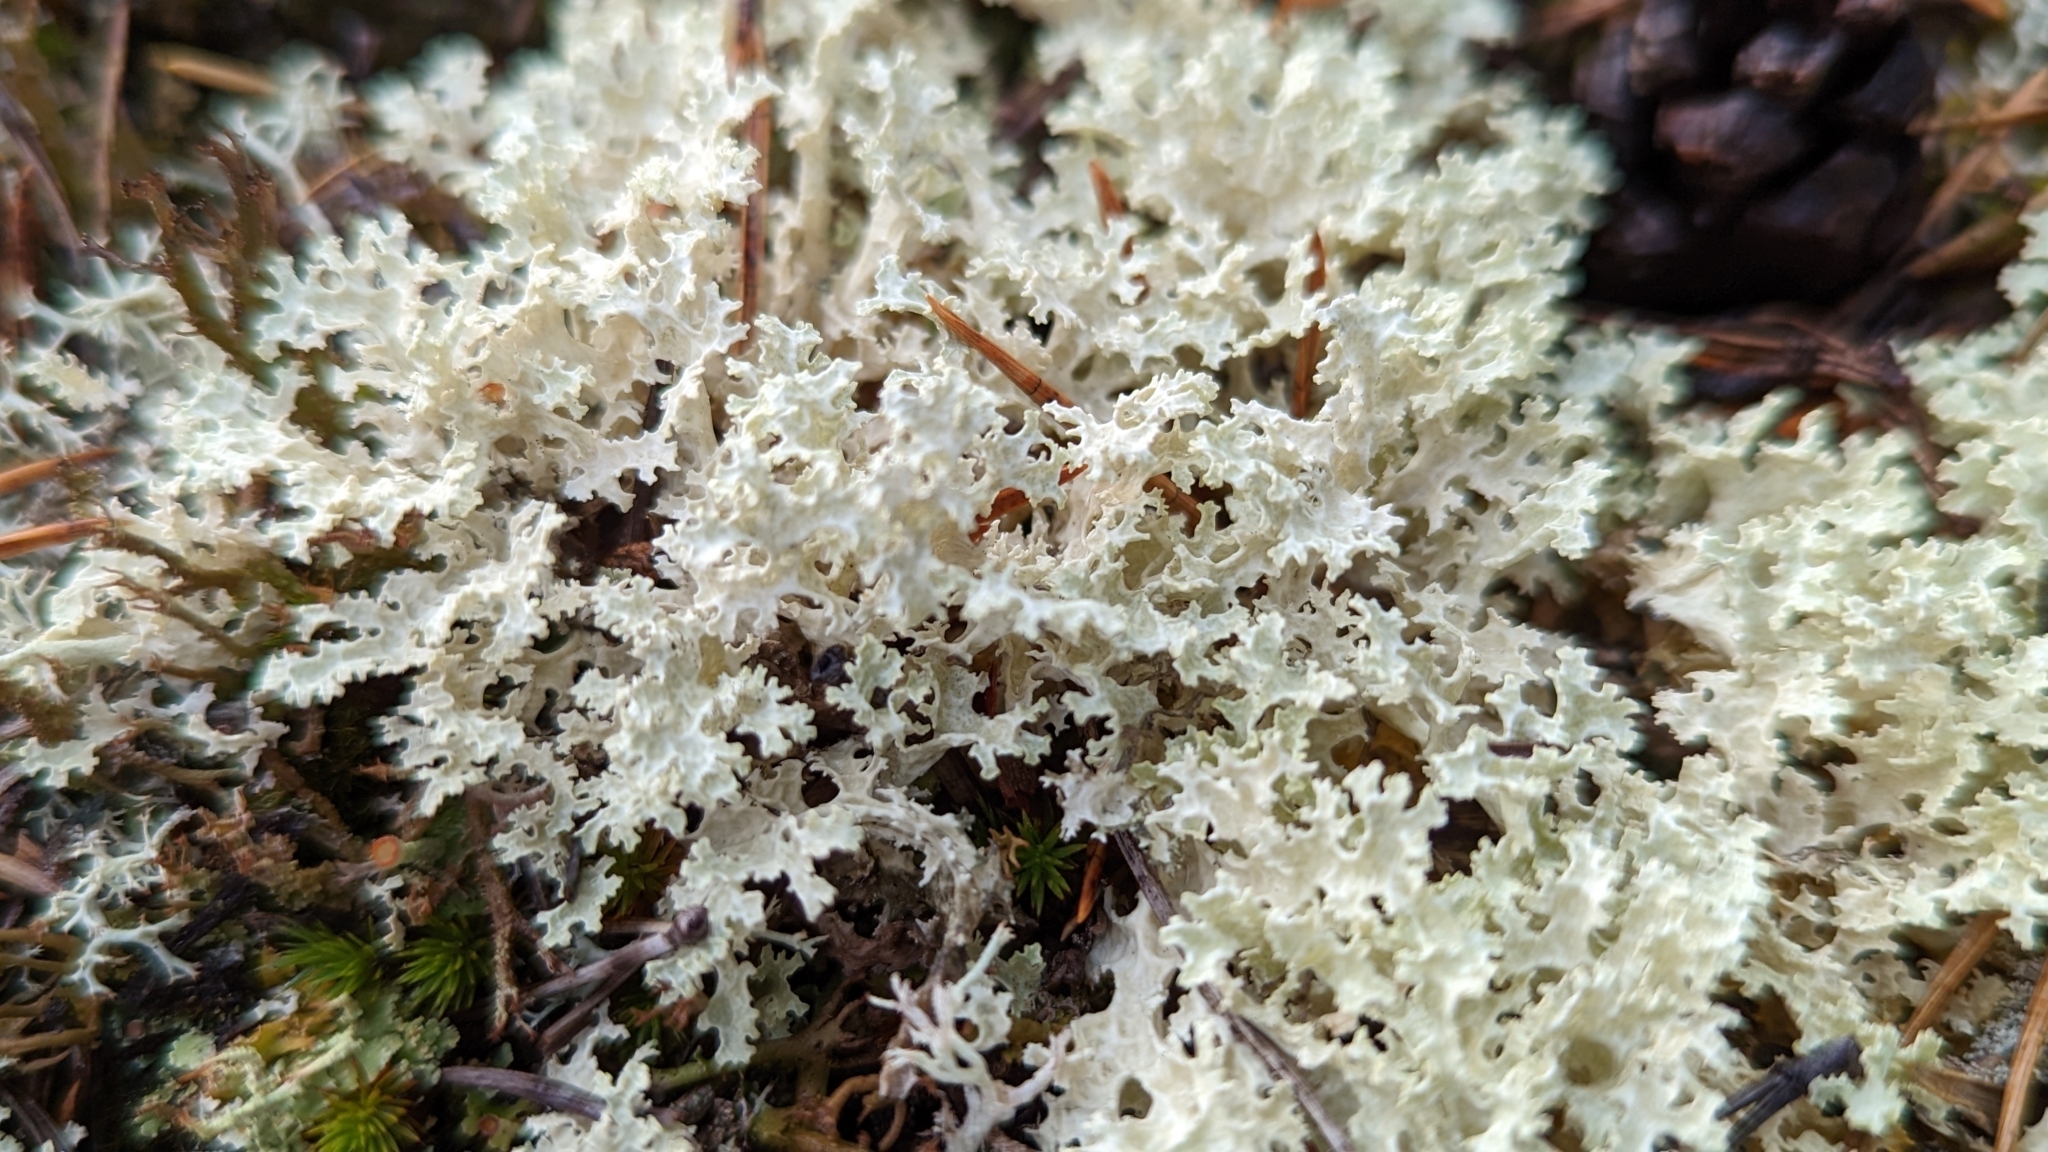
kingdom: Fungi
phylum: Ascomycota
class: Lecanoromycetes
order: Lecanorales
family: Parmeliaceae
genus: Nephromopsis
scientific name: Nephromopsis nivalis
